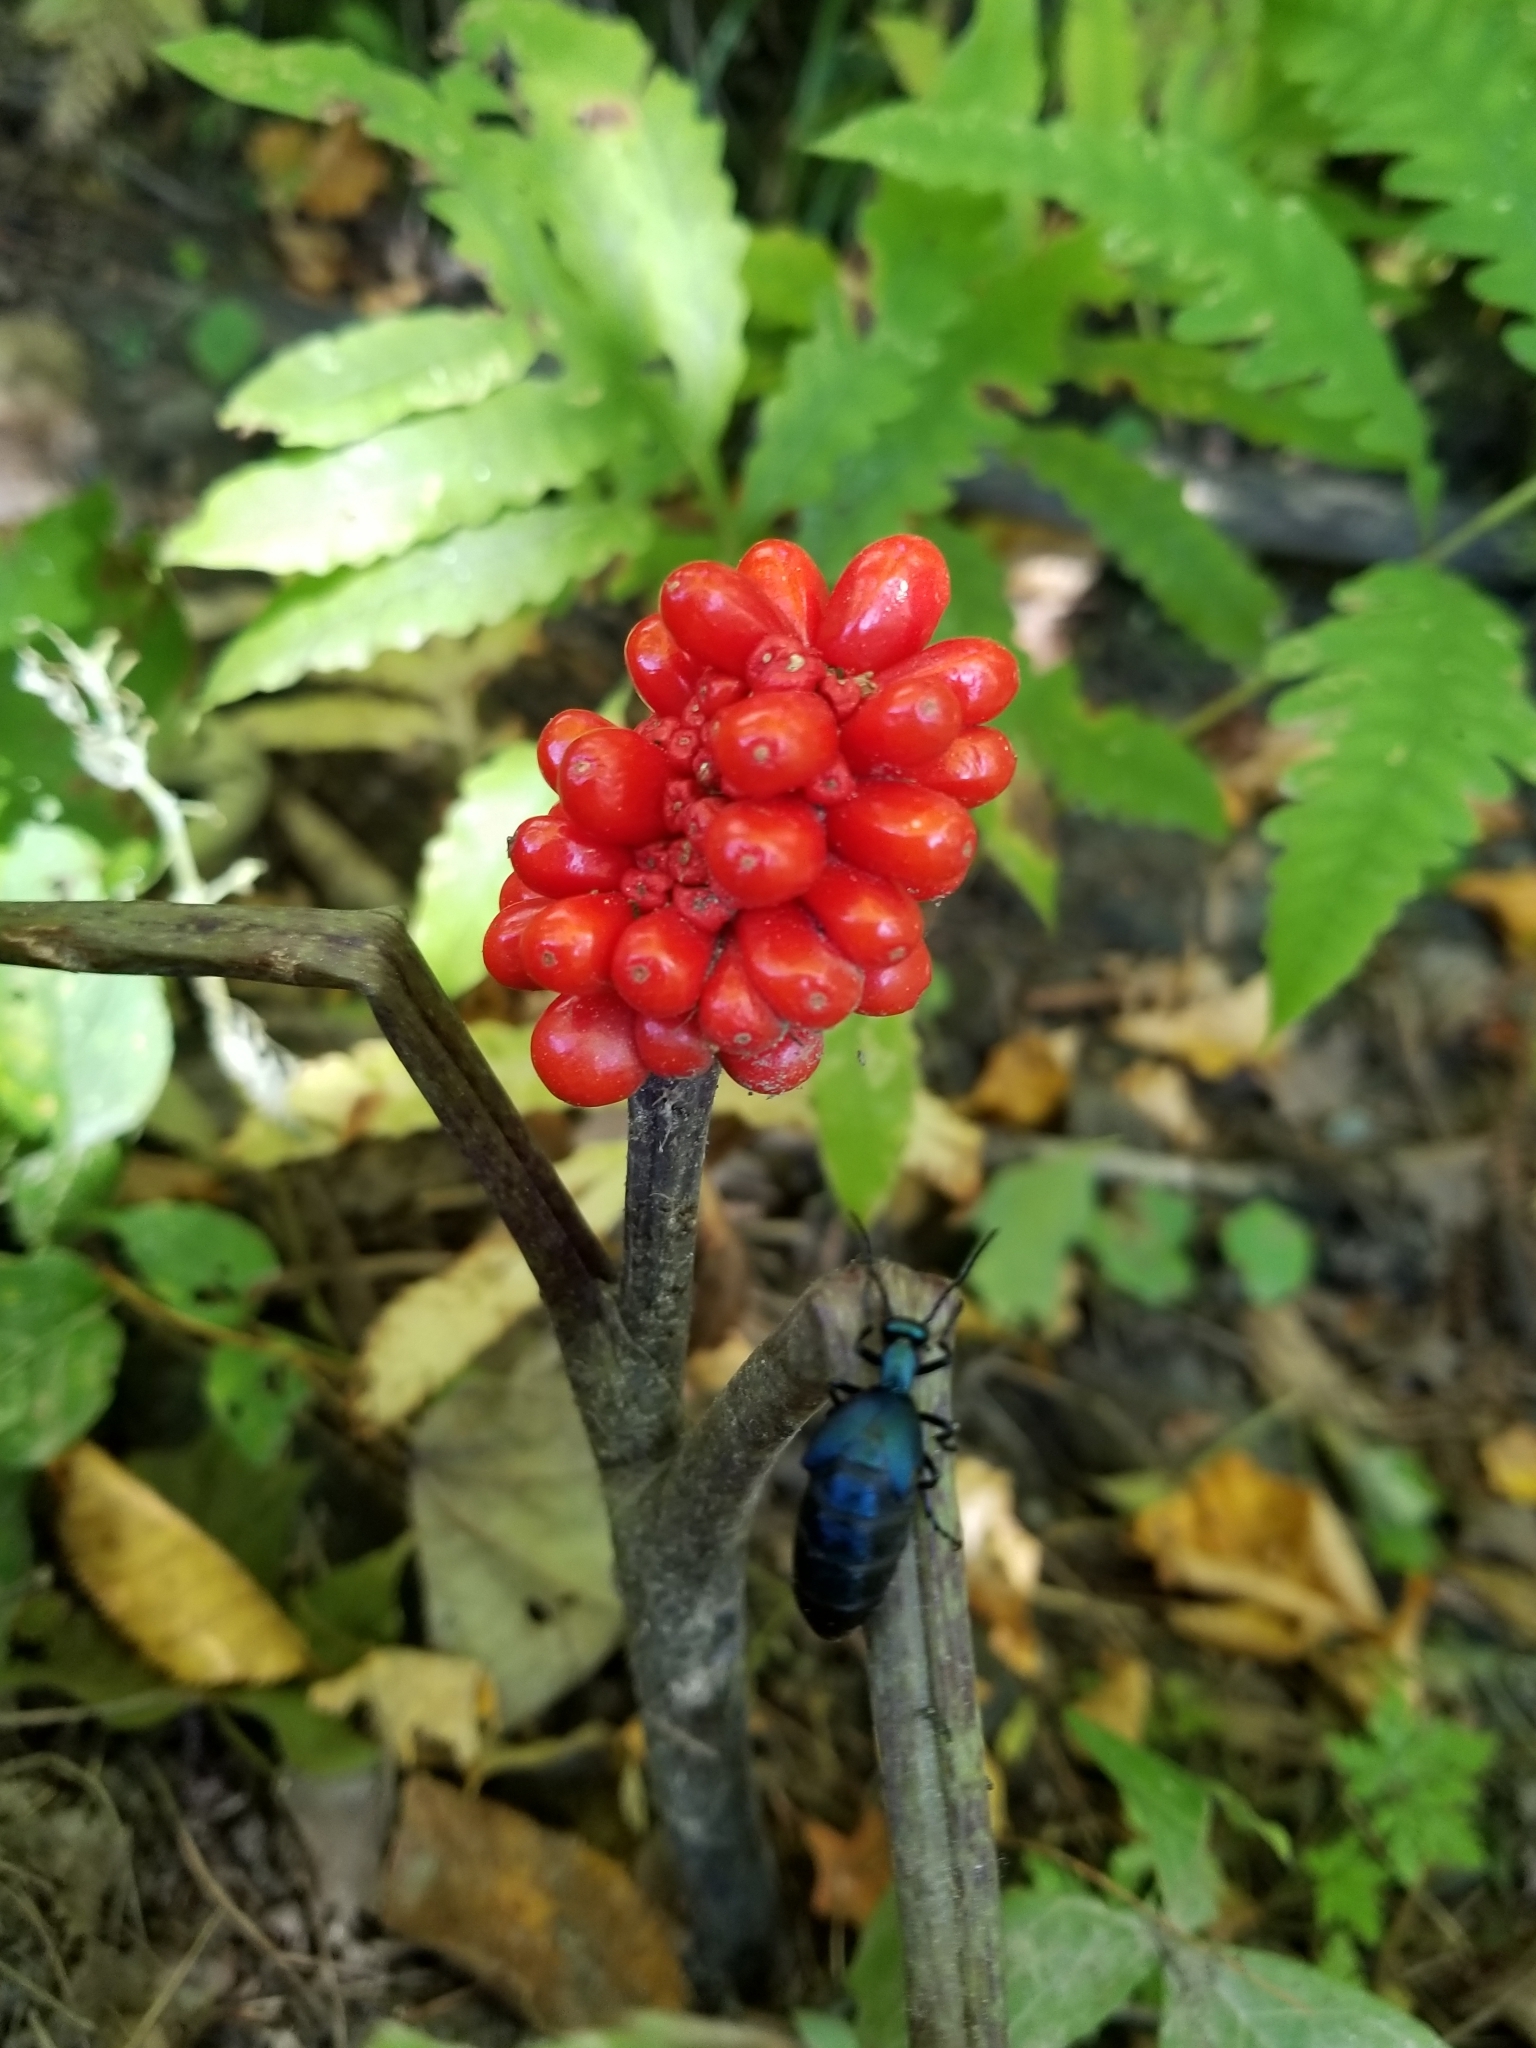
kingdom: Plantae
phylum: Tracheophyta
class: Liliopsida
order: Alismatales
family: Araceae
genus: Arisaema
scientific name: Arisaema triphyllum
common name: Jack-in-the-pulpit
